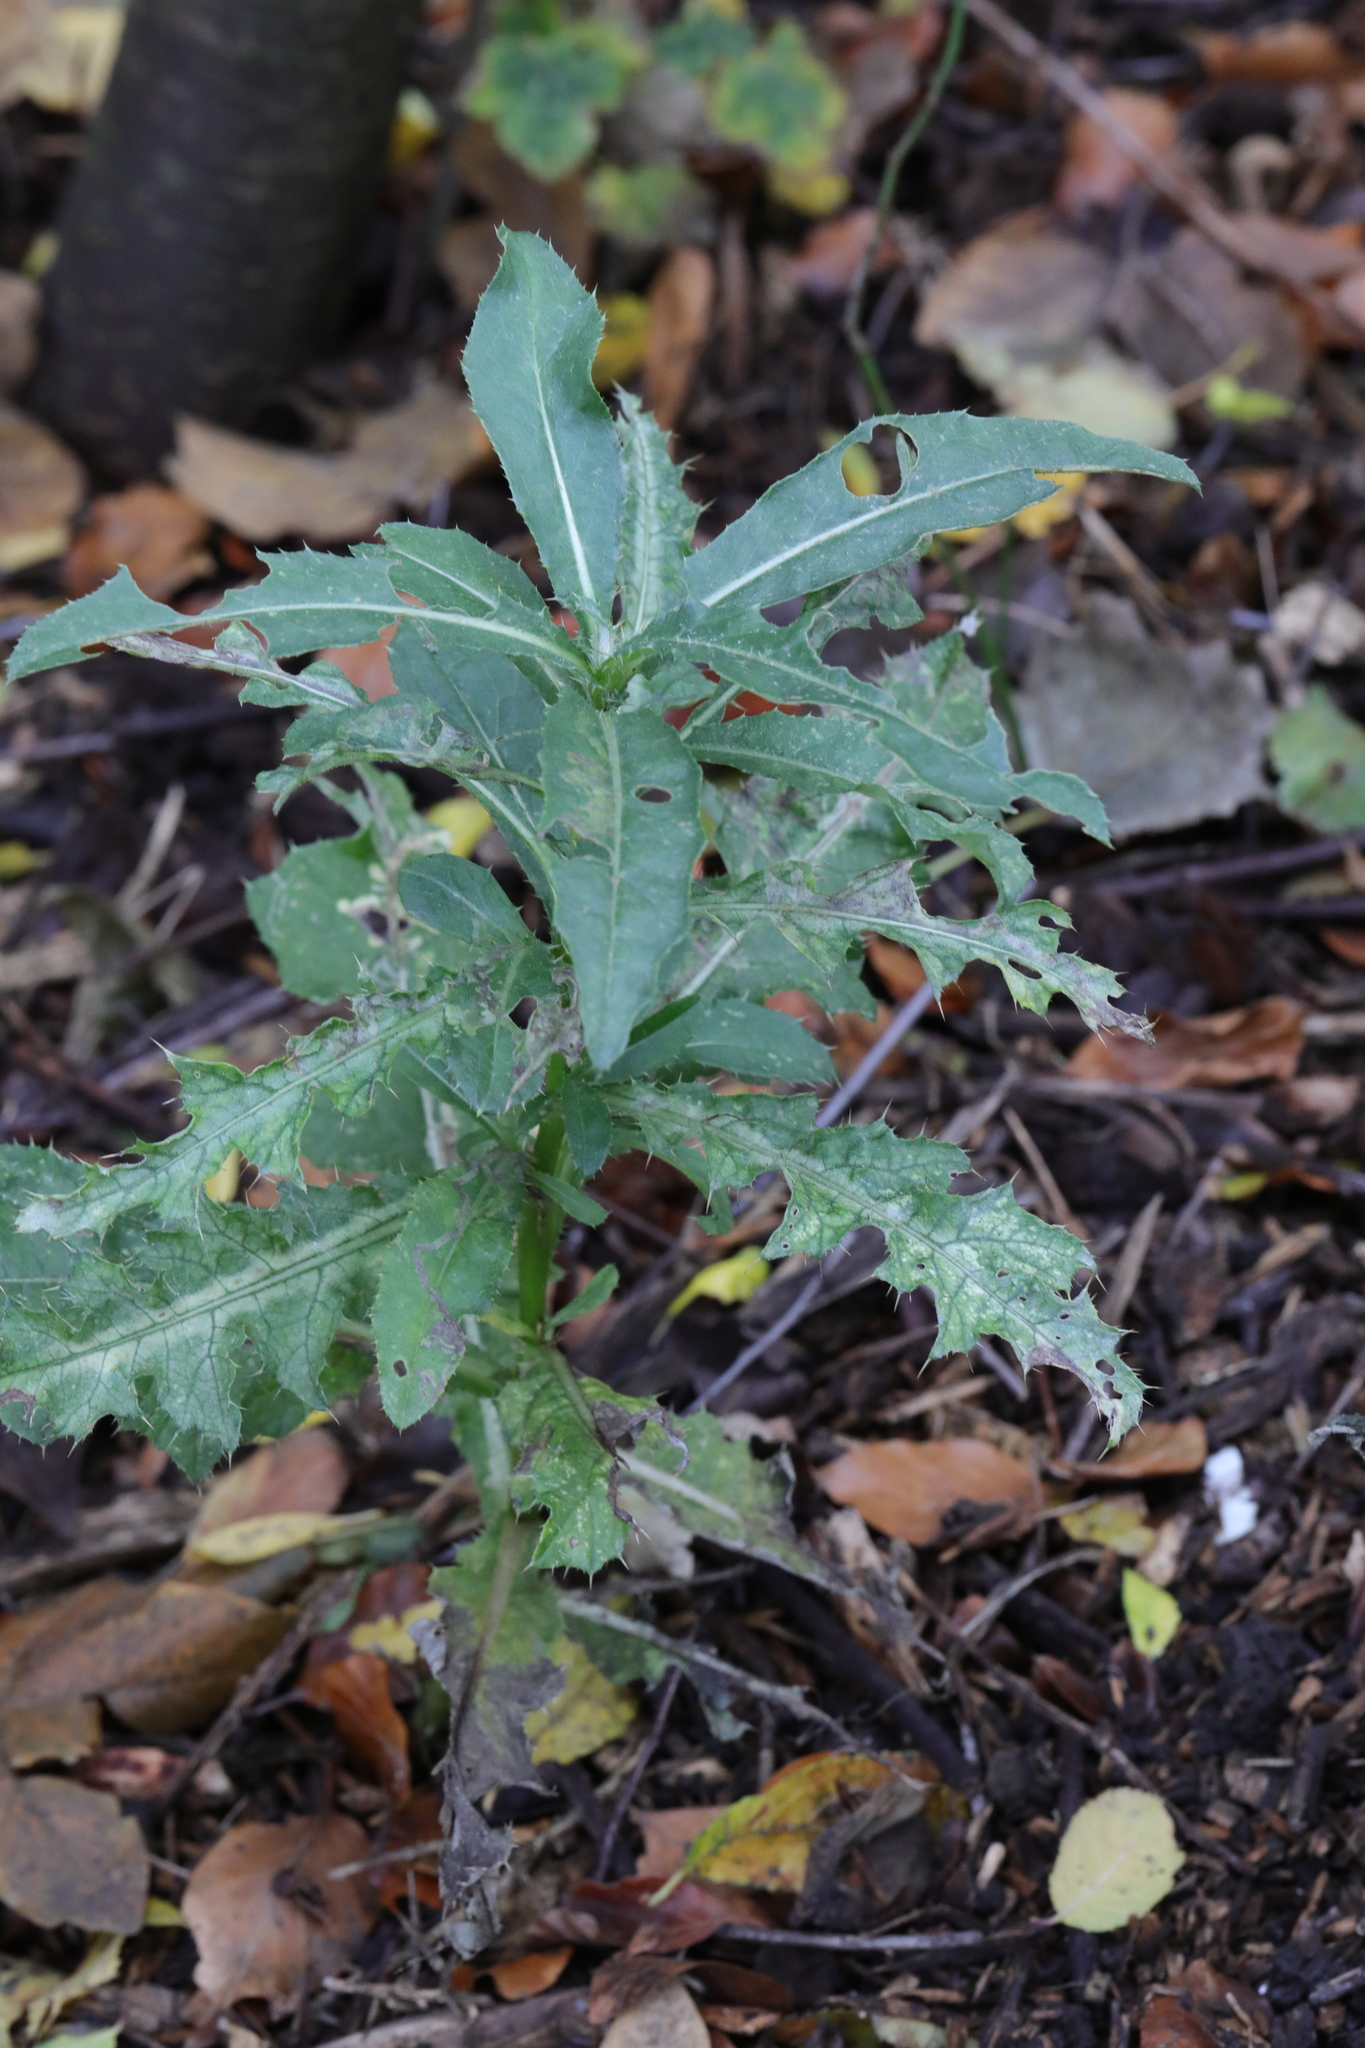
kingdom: Plantae
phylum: Tracheophyta
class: Magnoliopsida
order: Asterales
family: Asteraceae
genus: Cirsium
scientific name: Cirsium arvense
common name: Creeping thistle
